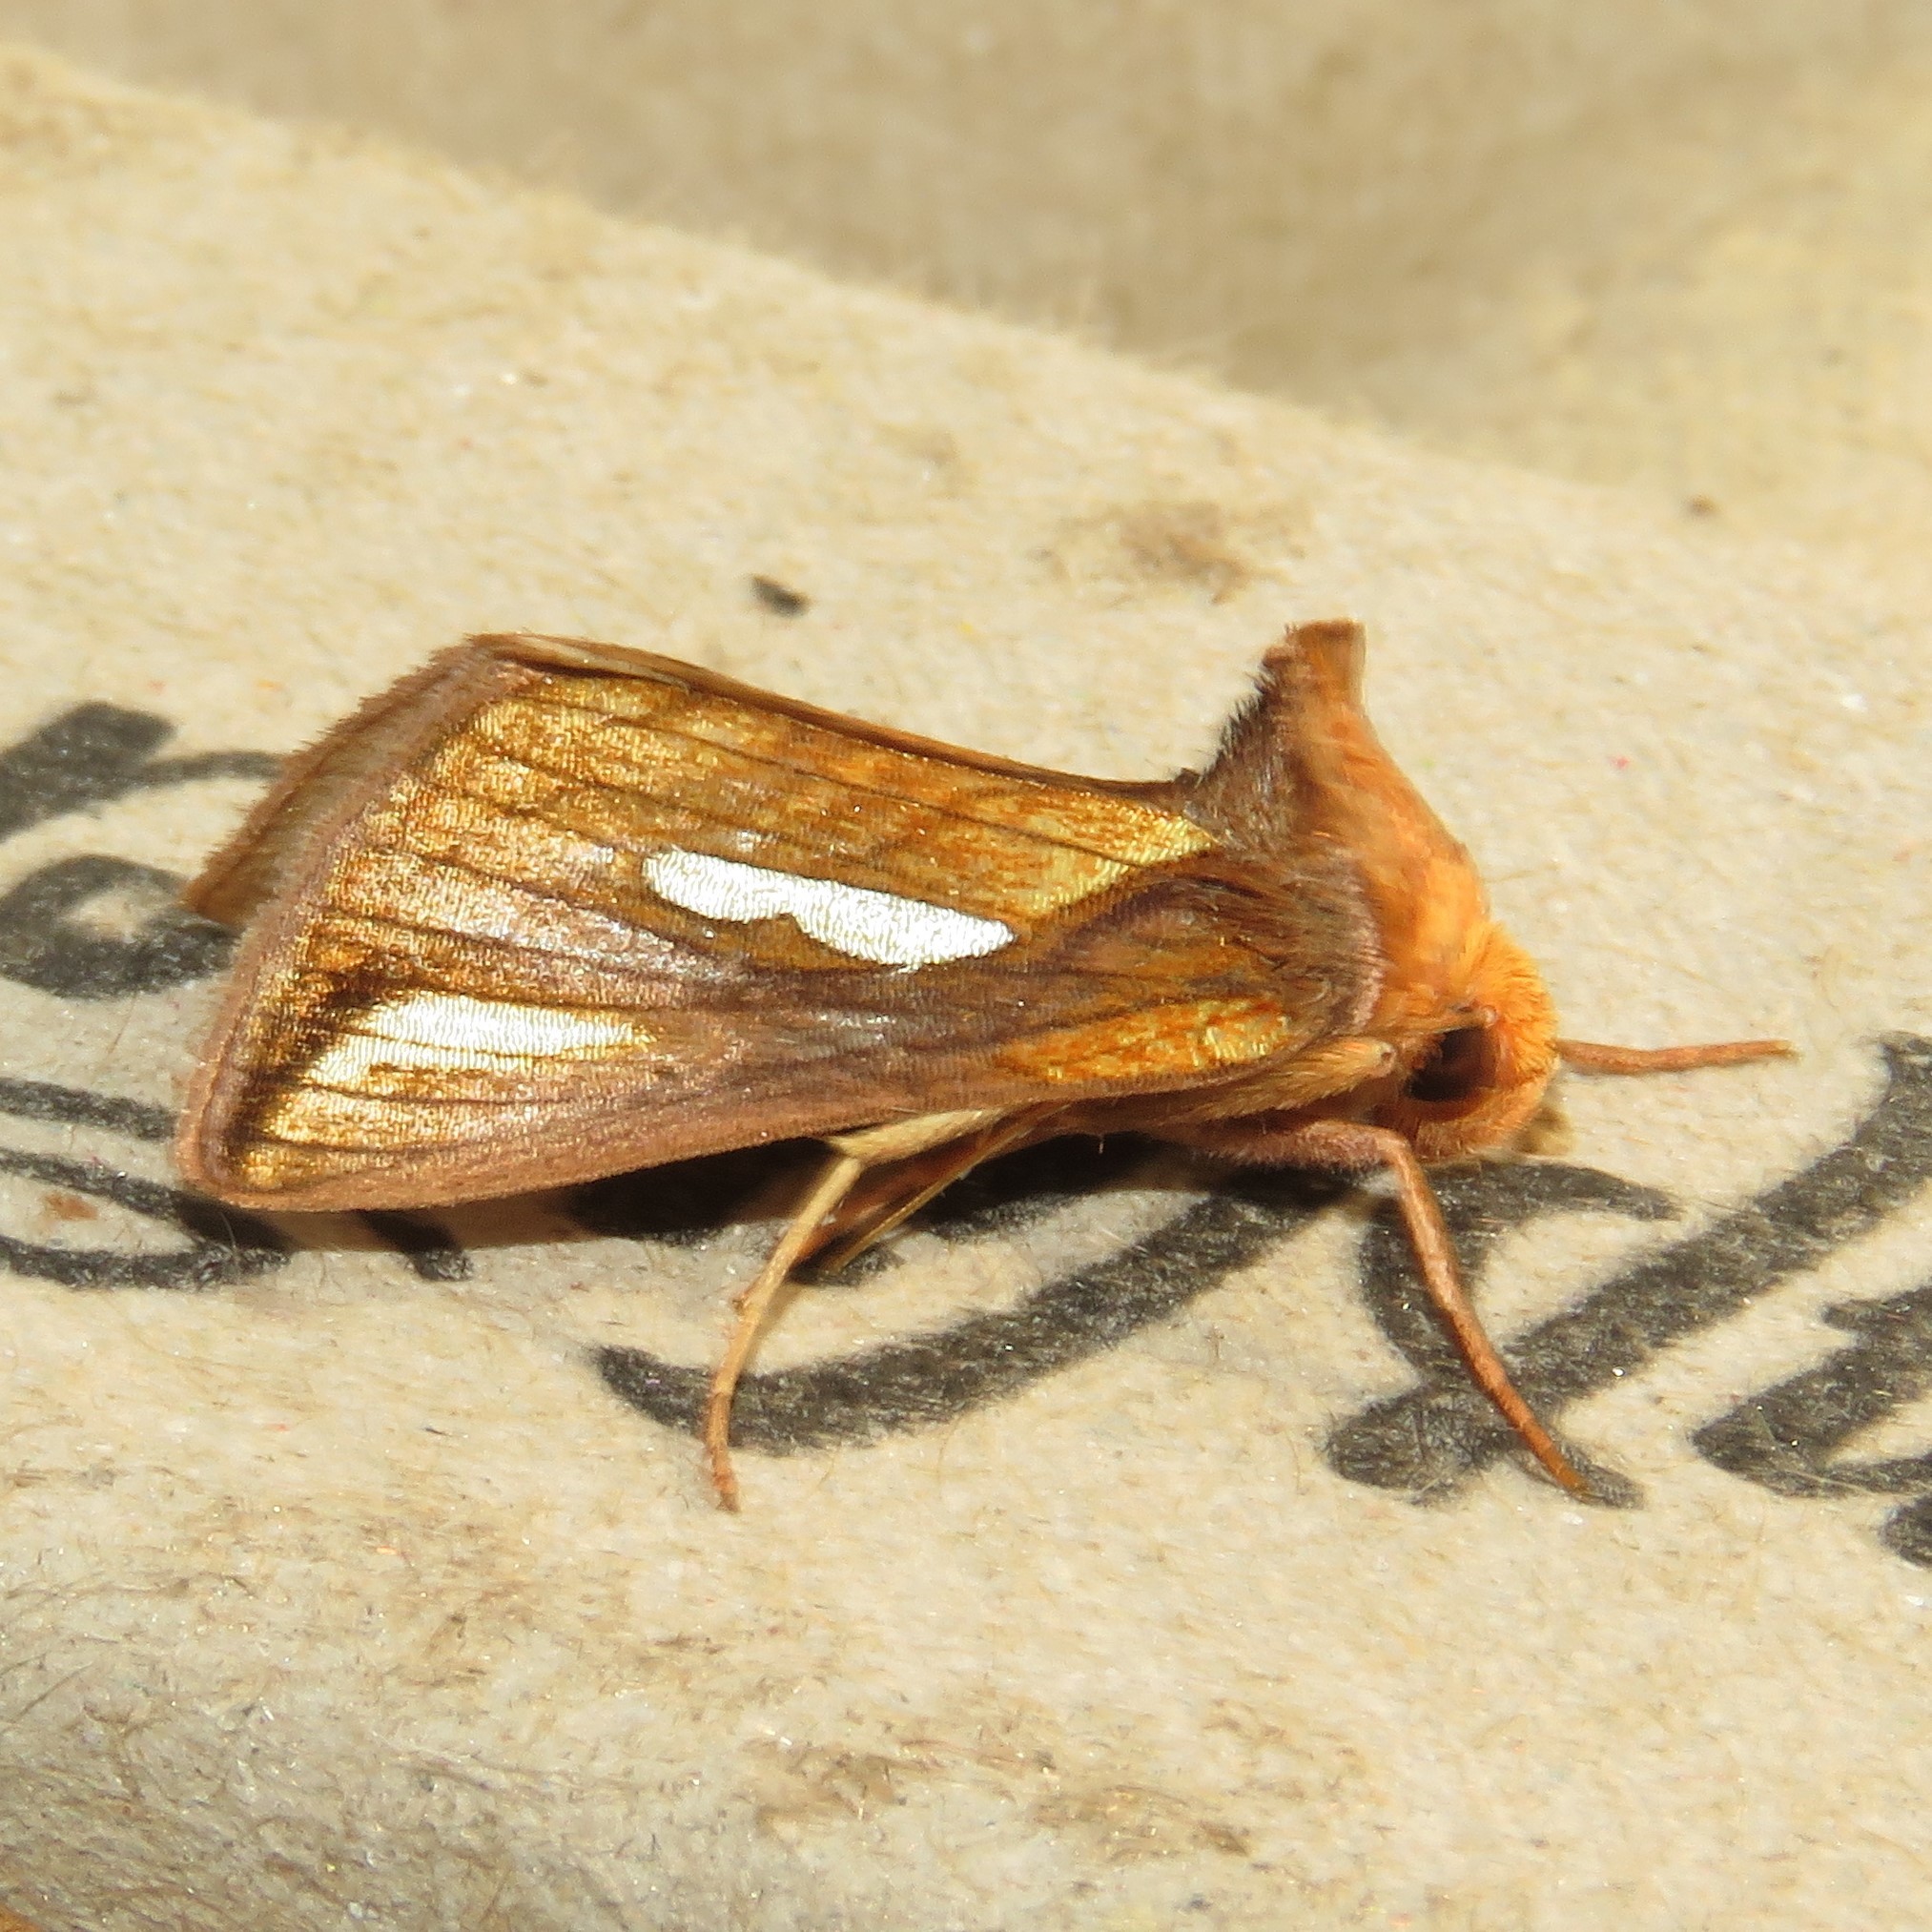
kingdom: Animalia
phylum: Arthropoda
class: Insecta
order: Lepidoptera
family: Noctuidae
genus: Plusia
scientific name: Plusia contexta
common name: Connected looper moth
